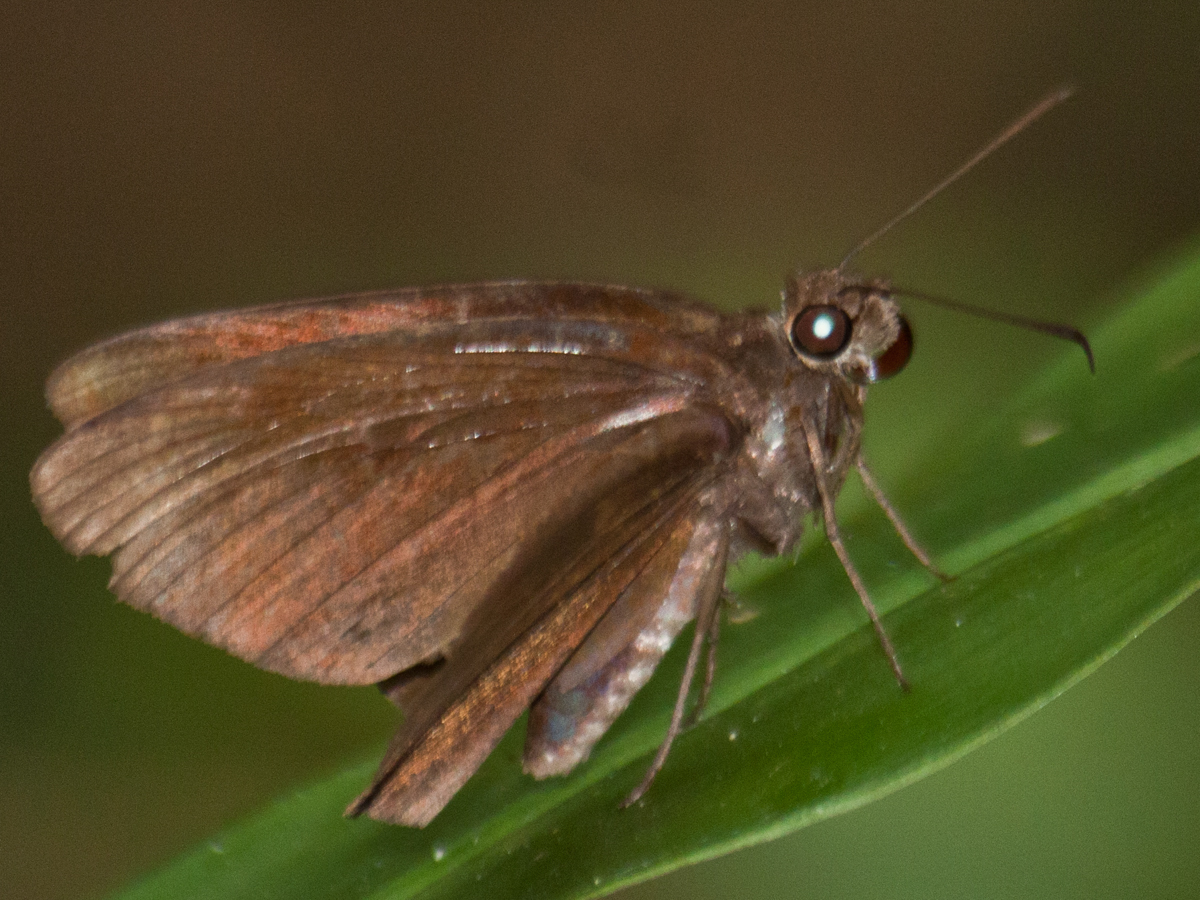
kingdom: Animalia
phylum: Arthropoda
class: Insecta
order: Lepidoptera
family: Hesperiidae
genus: Astictopterus
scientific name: Astictopterus jama
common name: Forest hopper
